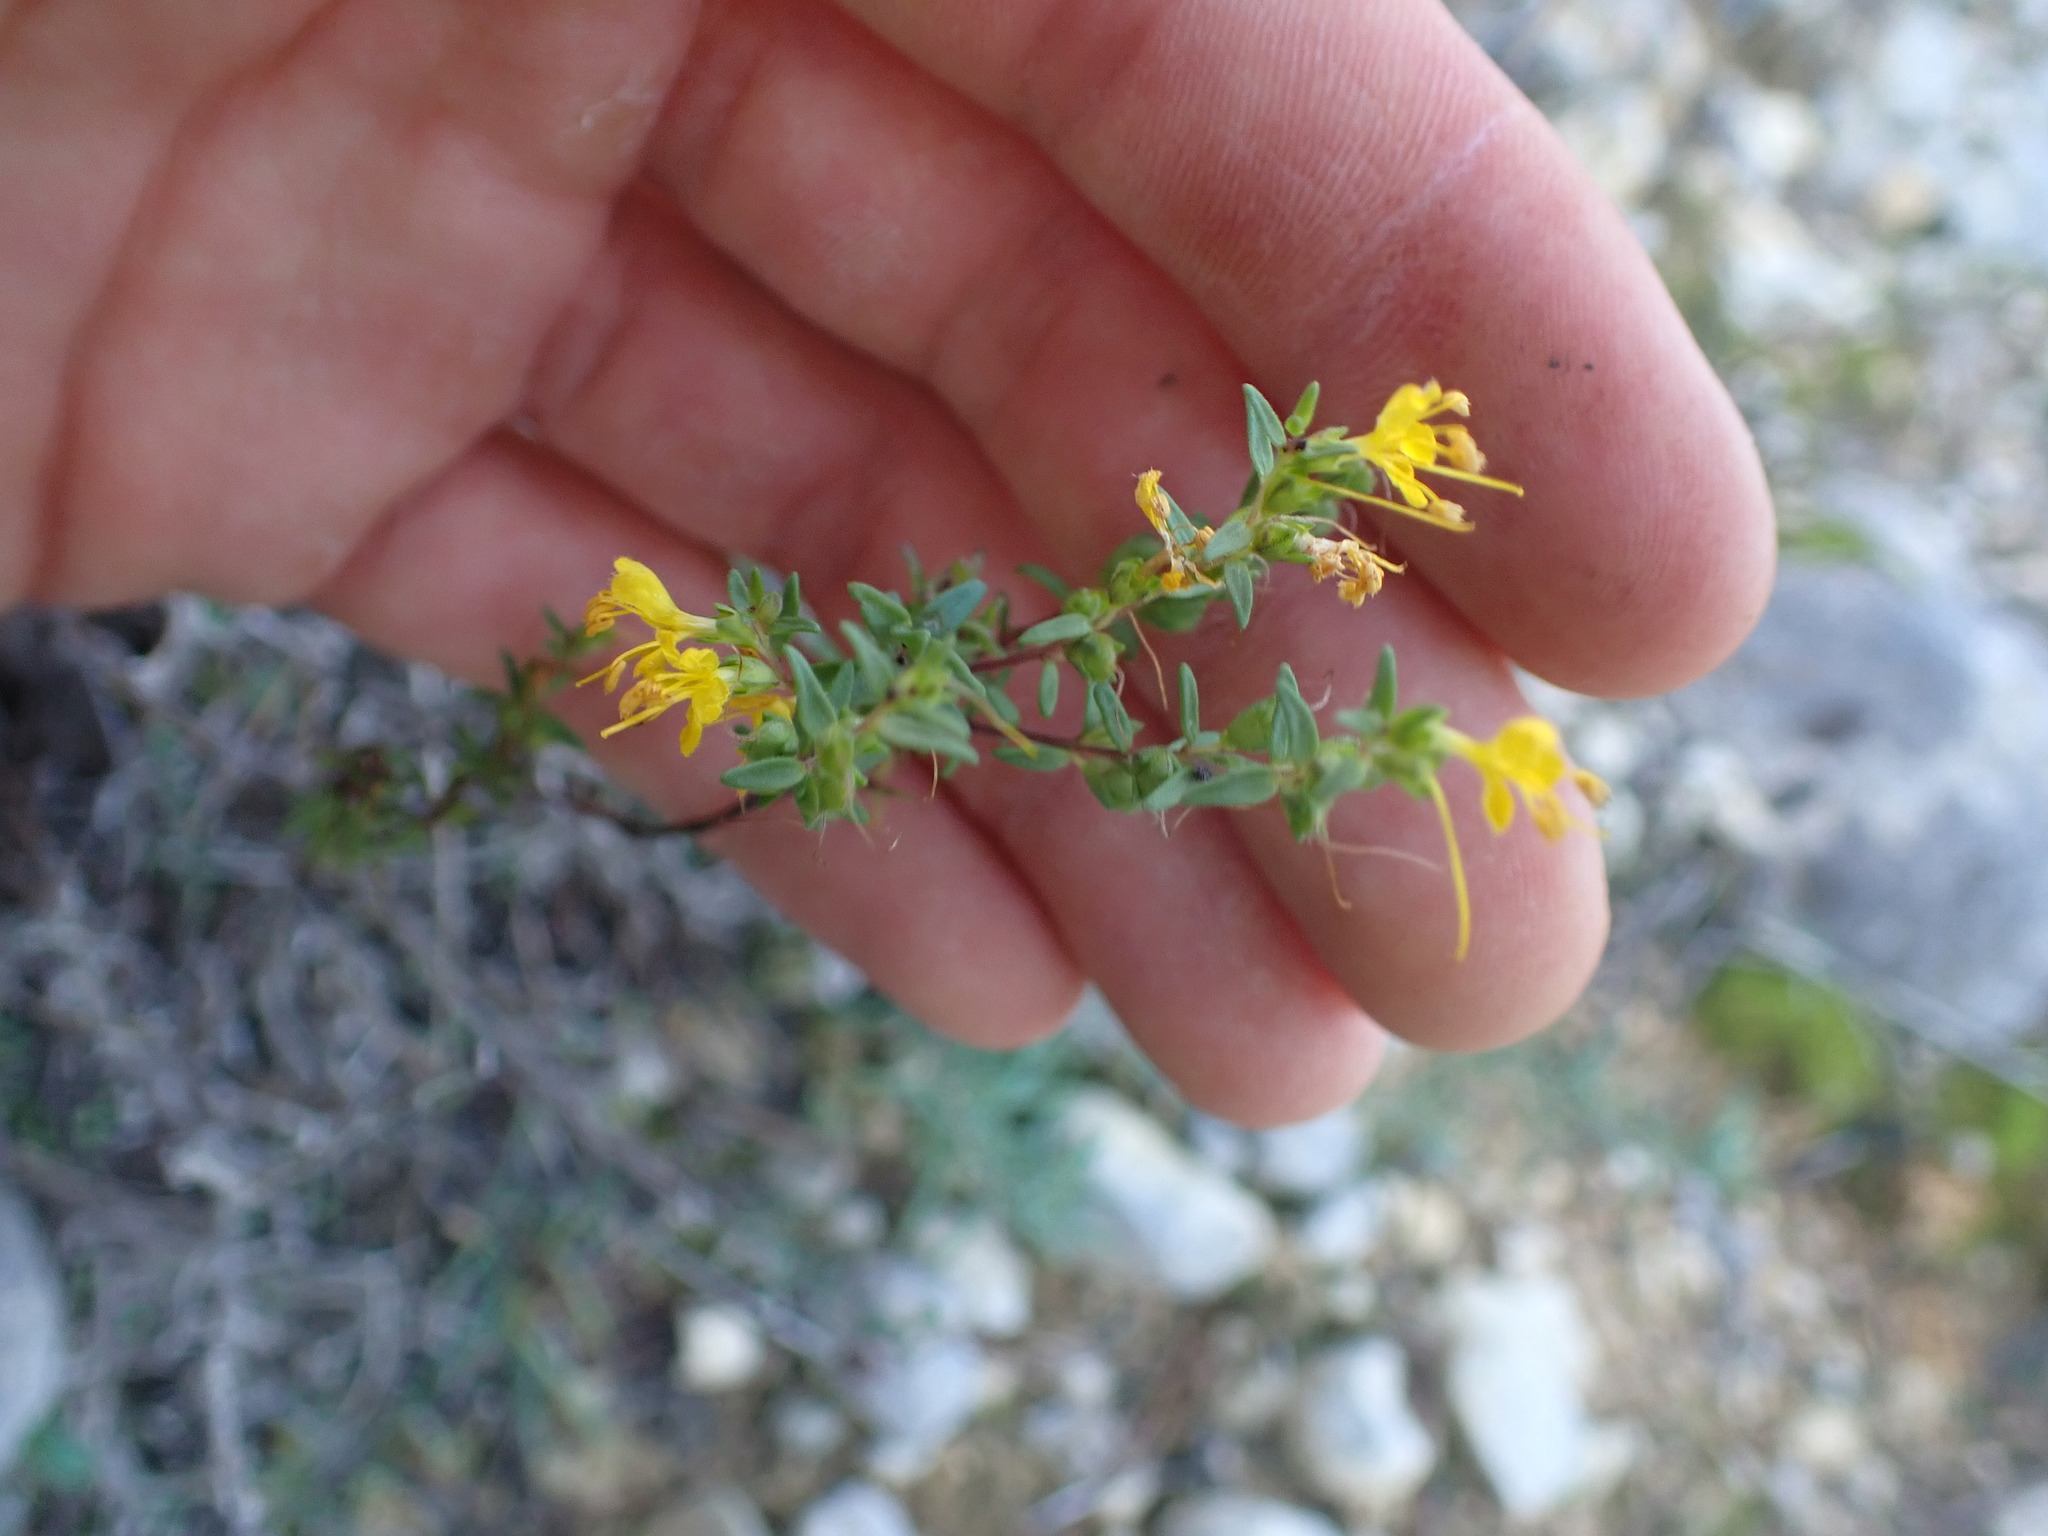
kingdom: Plantae
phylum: Tracheophyta
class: Magnoliopsida
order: Lamiales
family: Orobanchaceae
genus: Odontites
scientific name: Odontites luteus
